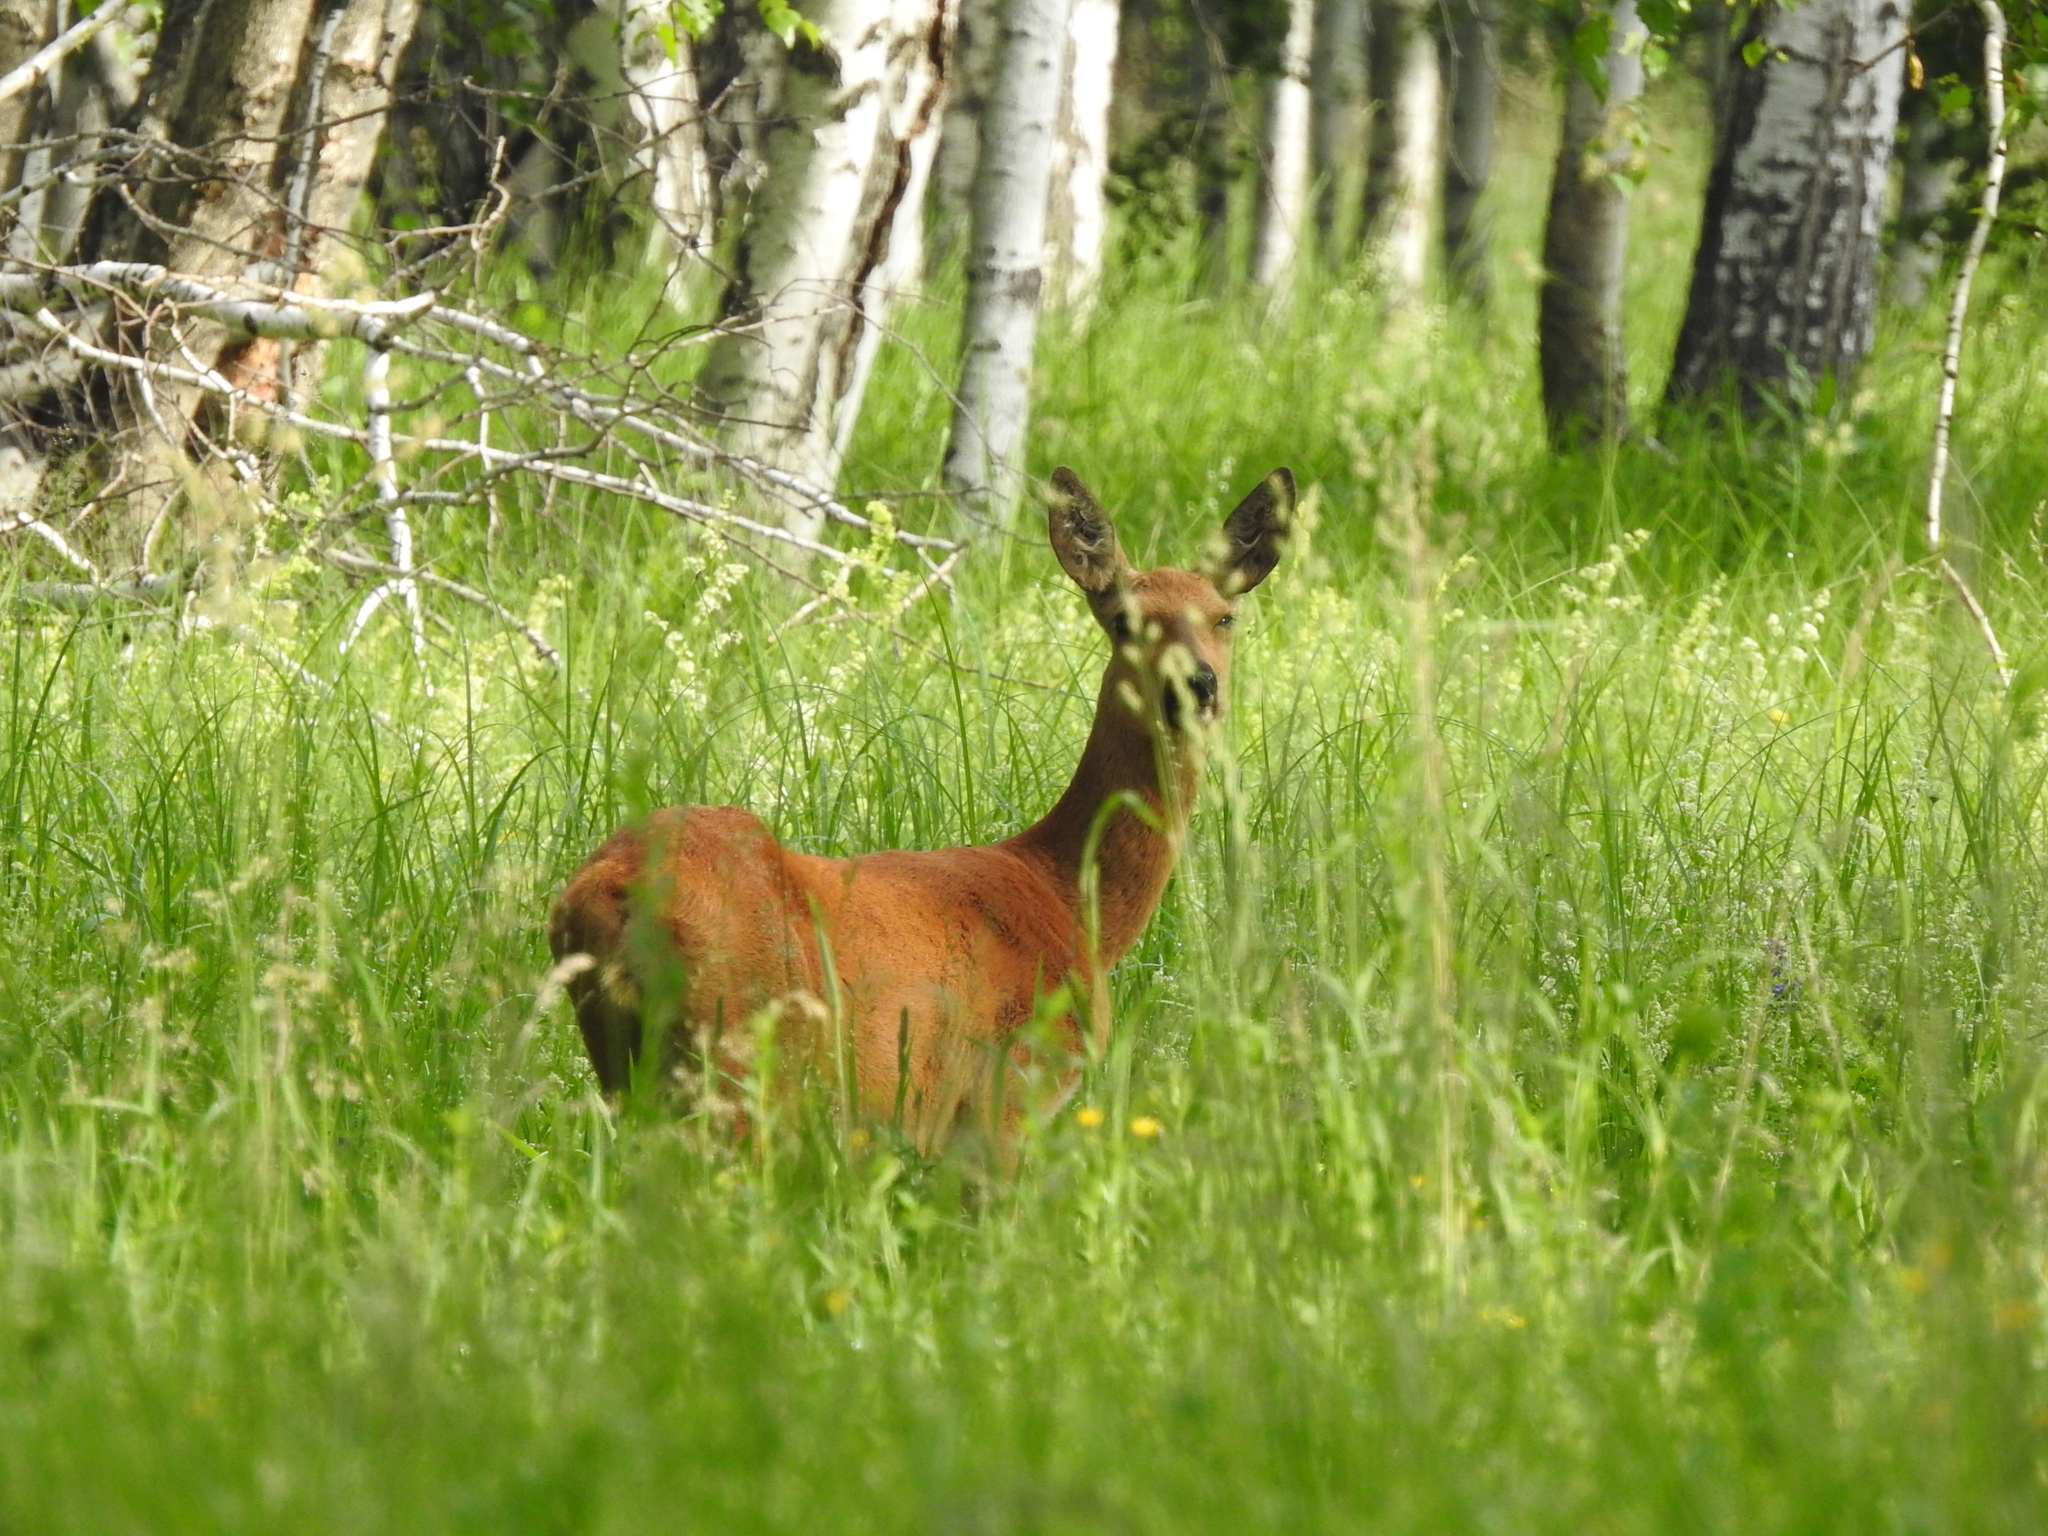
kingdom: Animalia
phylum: Chordata
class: Mammalia
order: Artiodactyla
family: Cervidae
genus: Capreolus
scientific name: Capreolus pygargus
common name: Siberian roe
